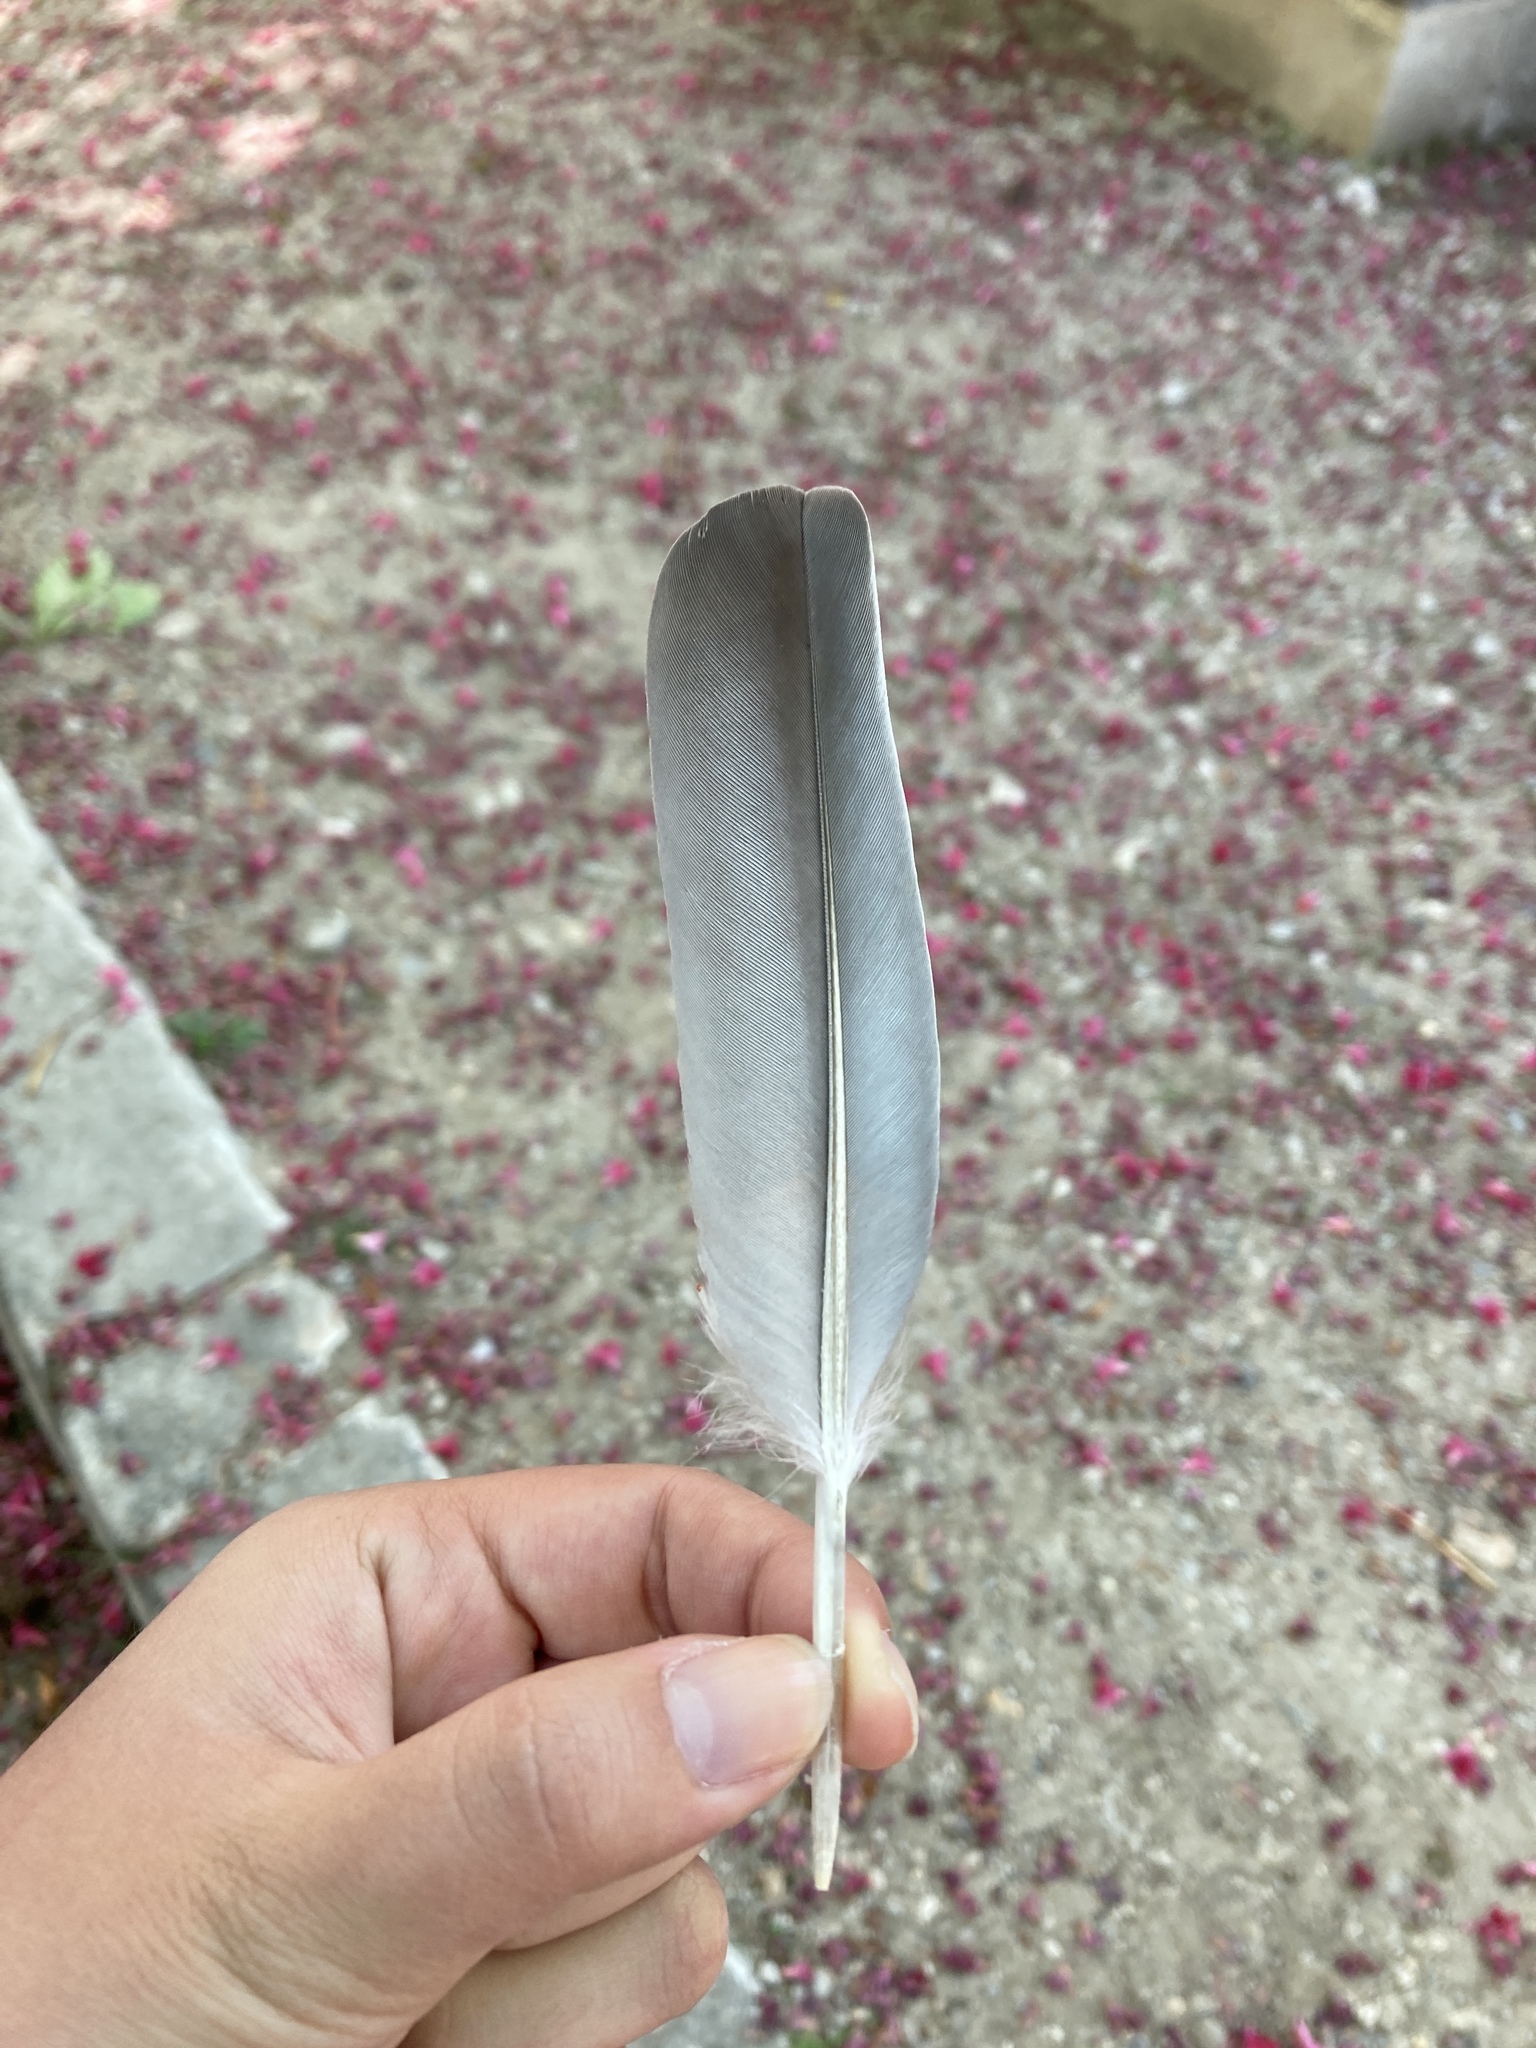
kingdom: Animalia
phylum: Chordata
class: Aves
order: Columbiformes
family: Columbidae
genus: Columba
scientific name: Columba palumbus
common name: Common wood pigeon
